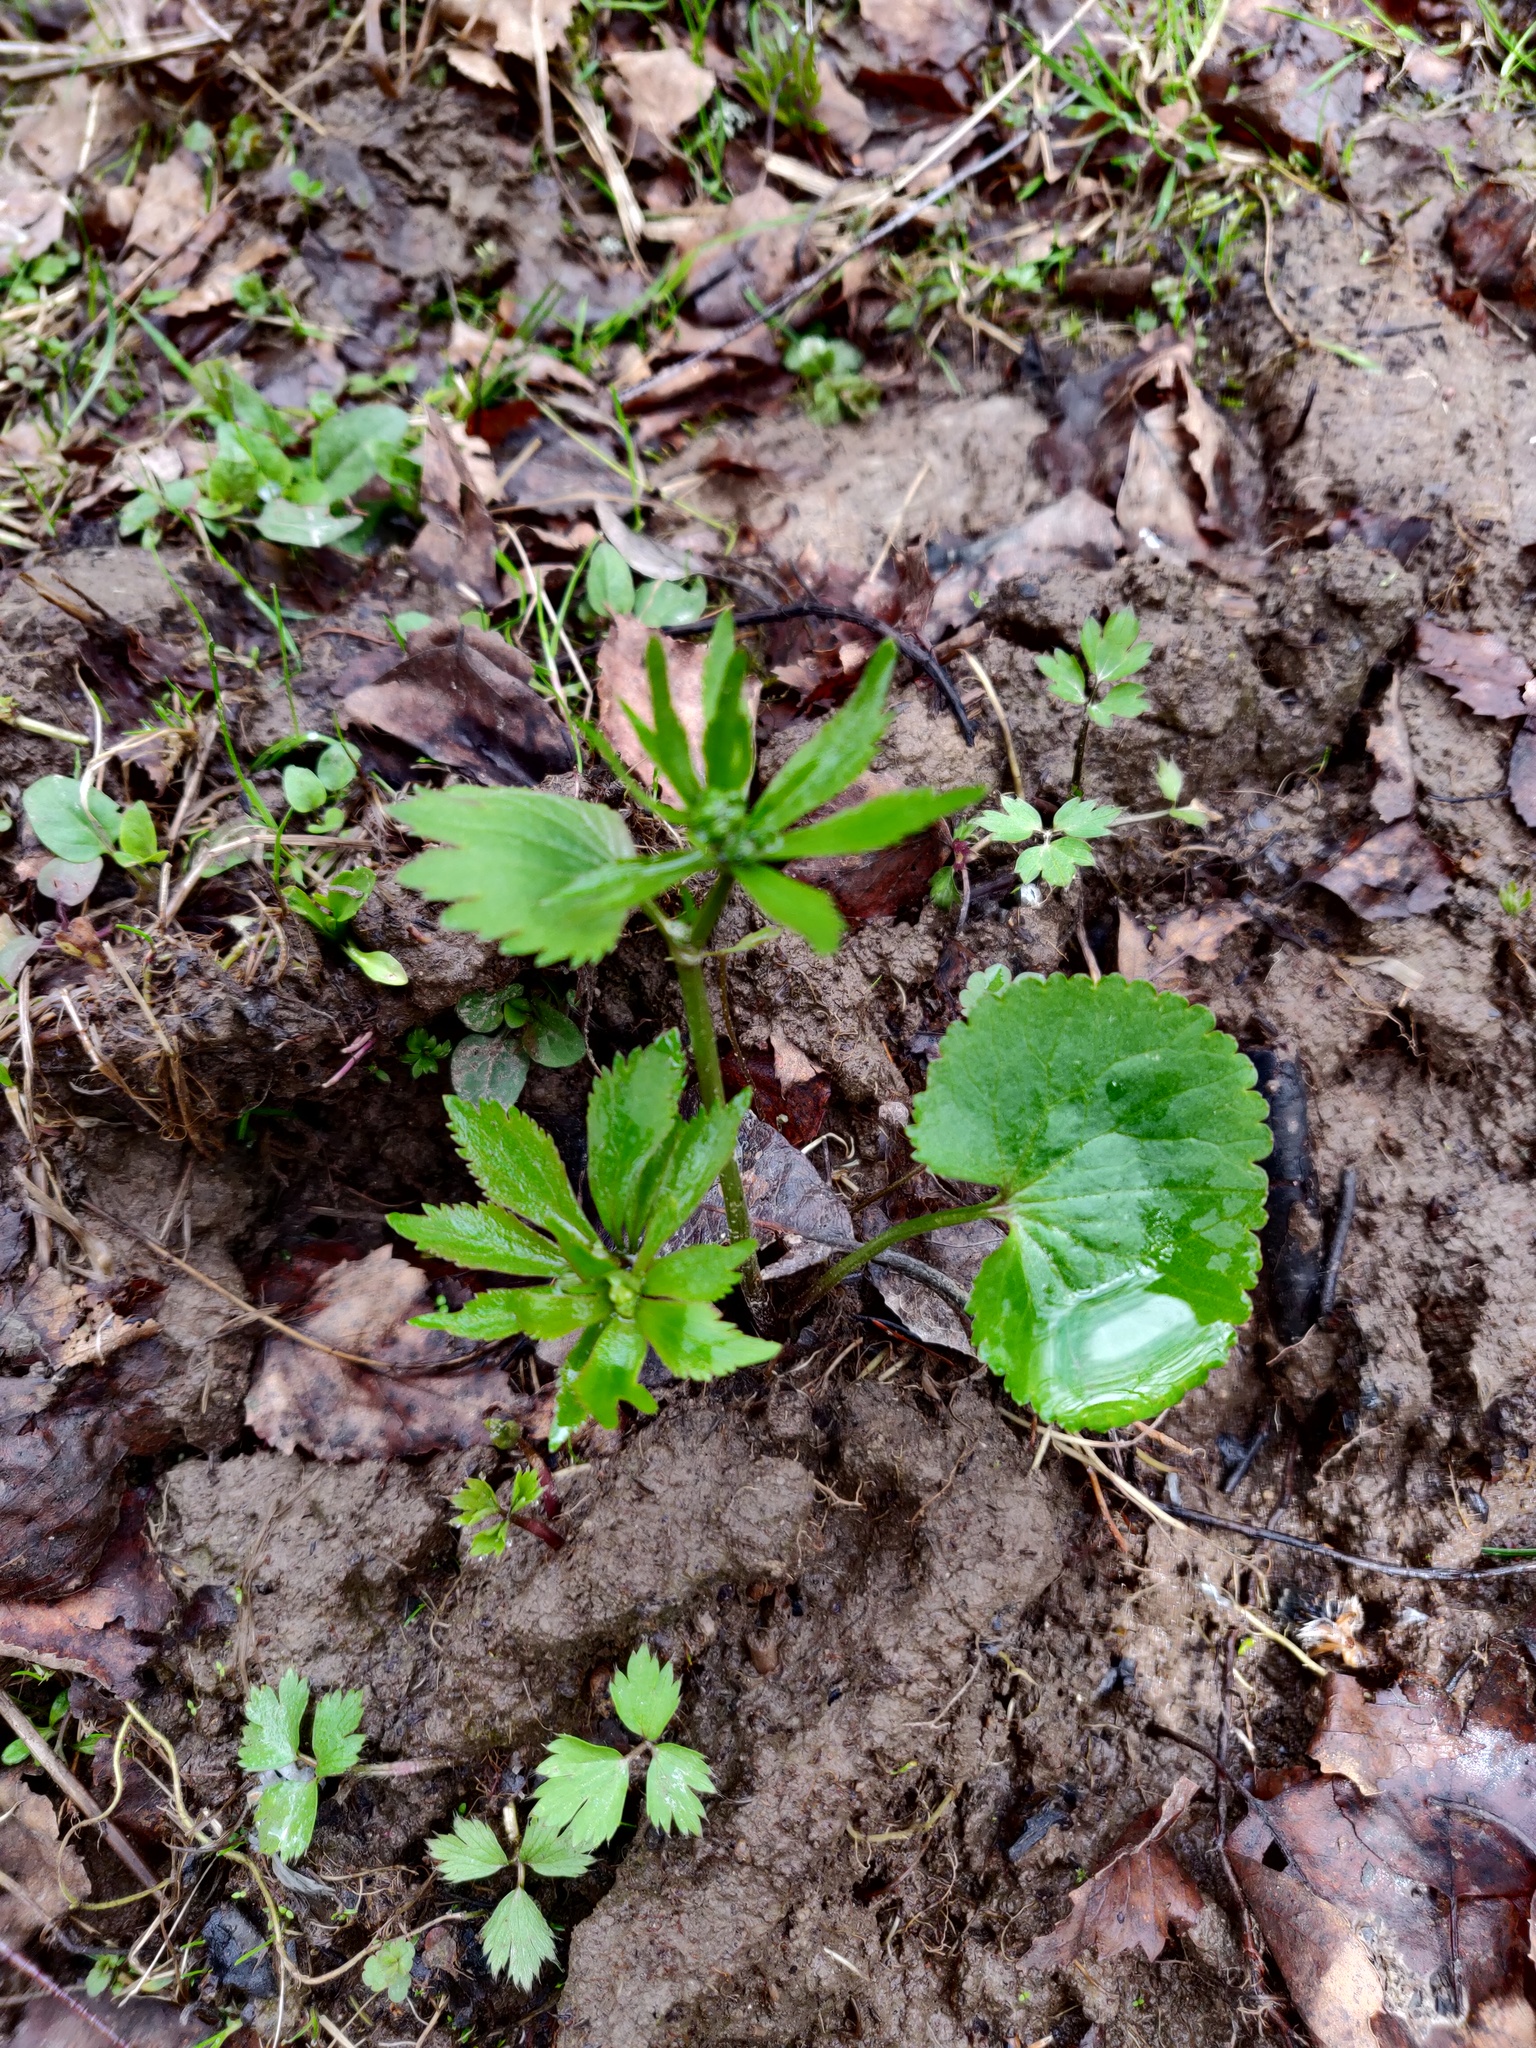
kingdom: Plantae
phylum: Tracheophyta
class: Magnoliopsida
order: Ranunculales
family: Ranunculaceae
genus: Ranunculus
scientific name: Ranunculus cassubicus
